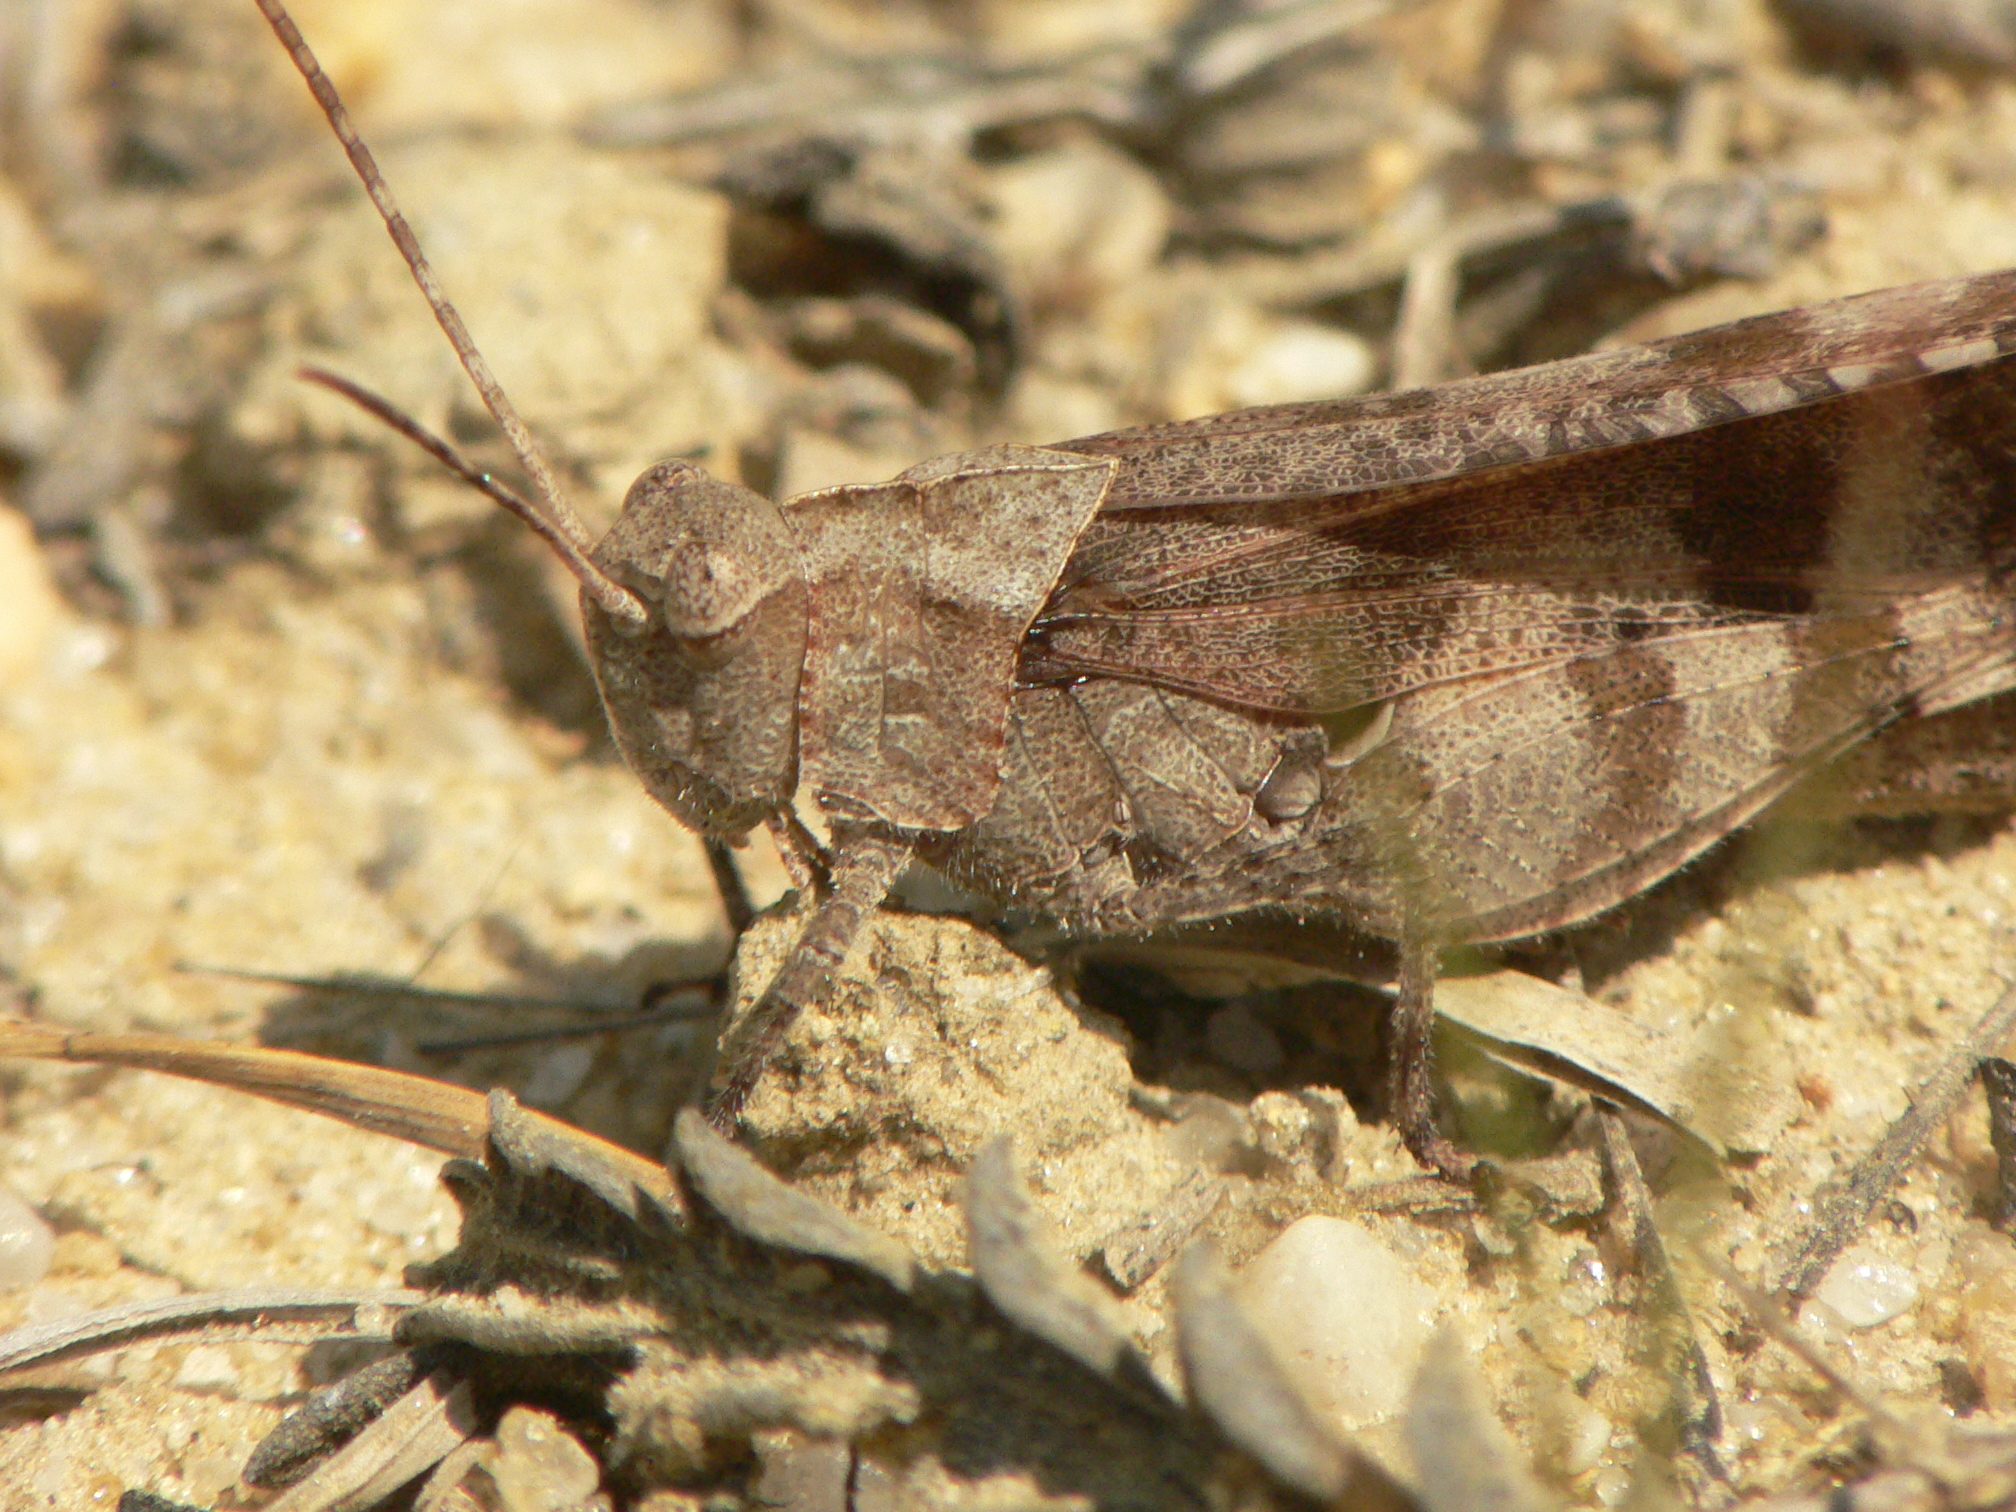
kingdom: Animalia
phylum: Arthropoda
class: Insecta
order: Orthoptera
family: Acrididae
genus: Spharagemon
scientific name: Spharagemon bolli
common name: Boll's grasshopper
